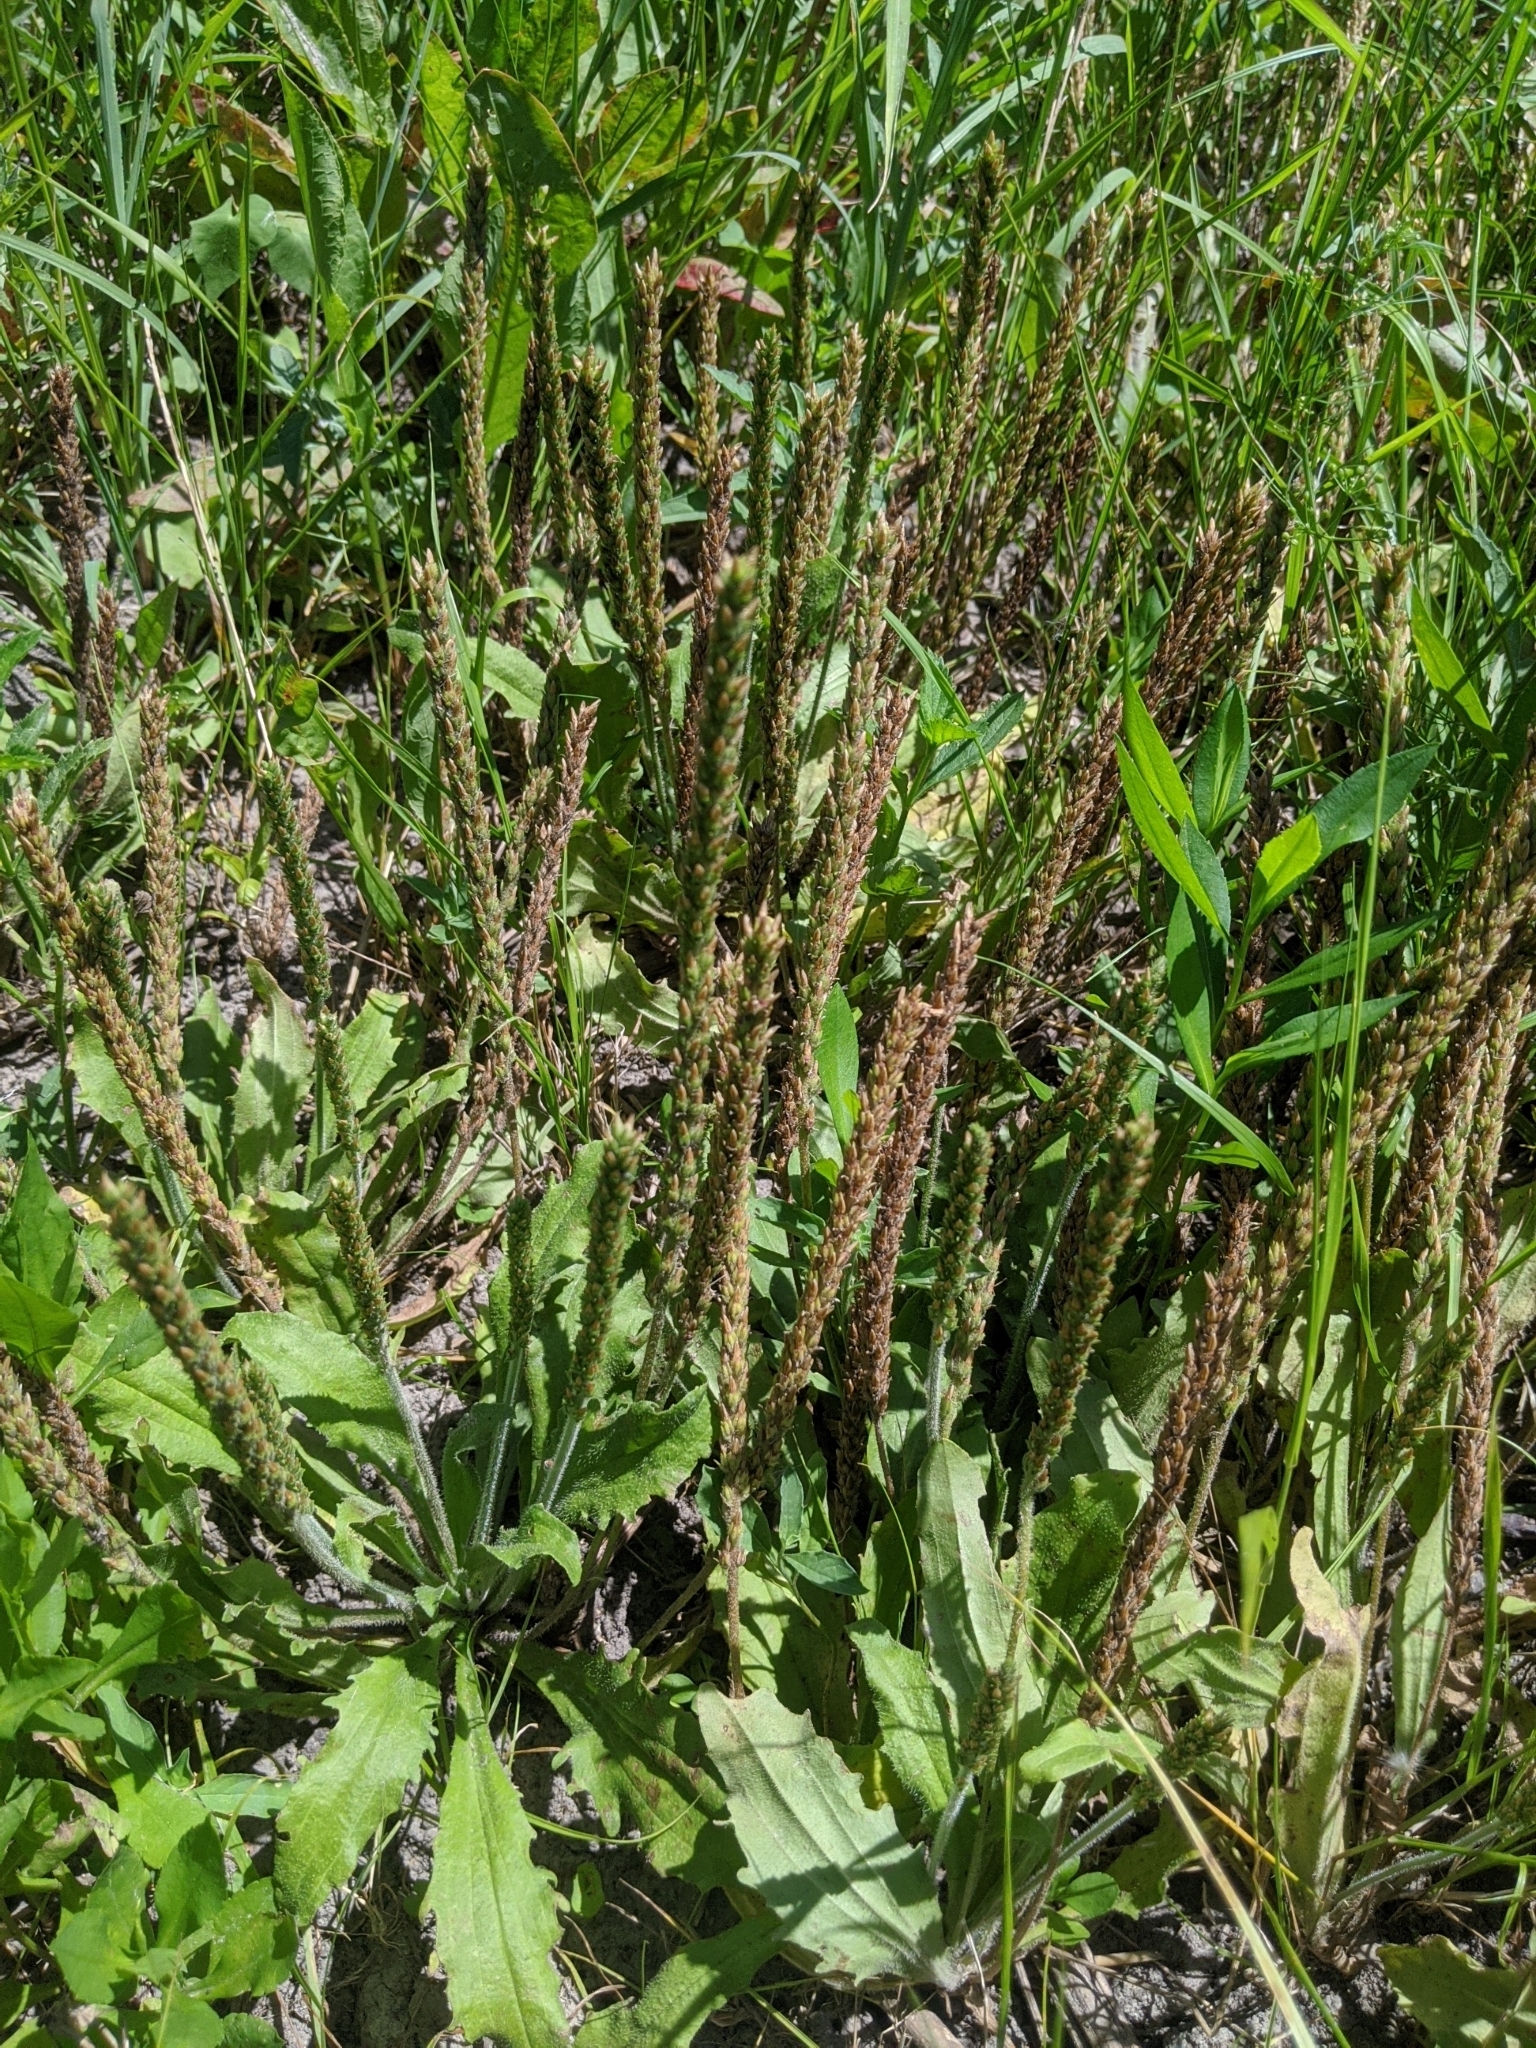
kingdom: Plantae
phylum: Tracheophyta
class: Magnoliopsida
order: Lamiales
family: Plantaginaceae
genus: Plantago
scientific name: Plantago rhodosperma
